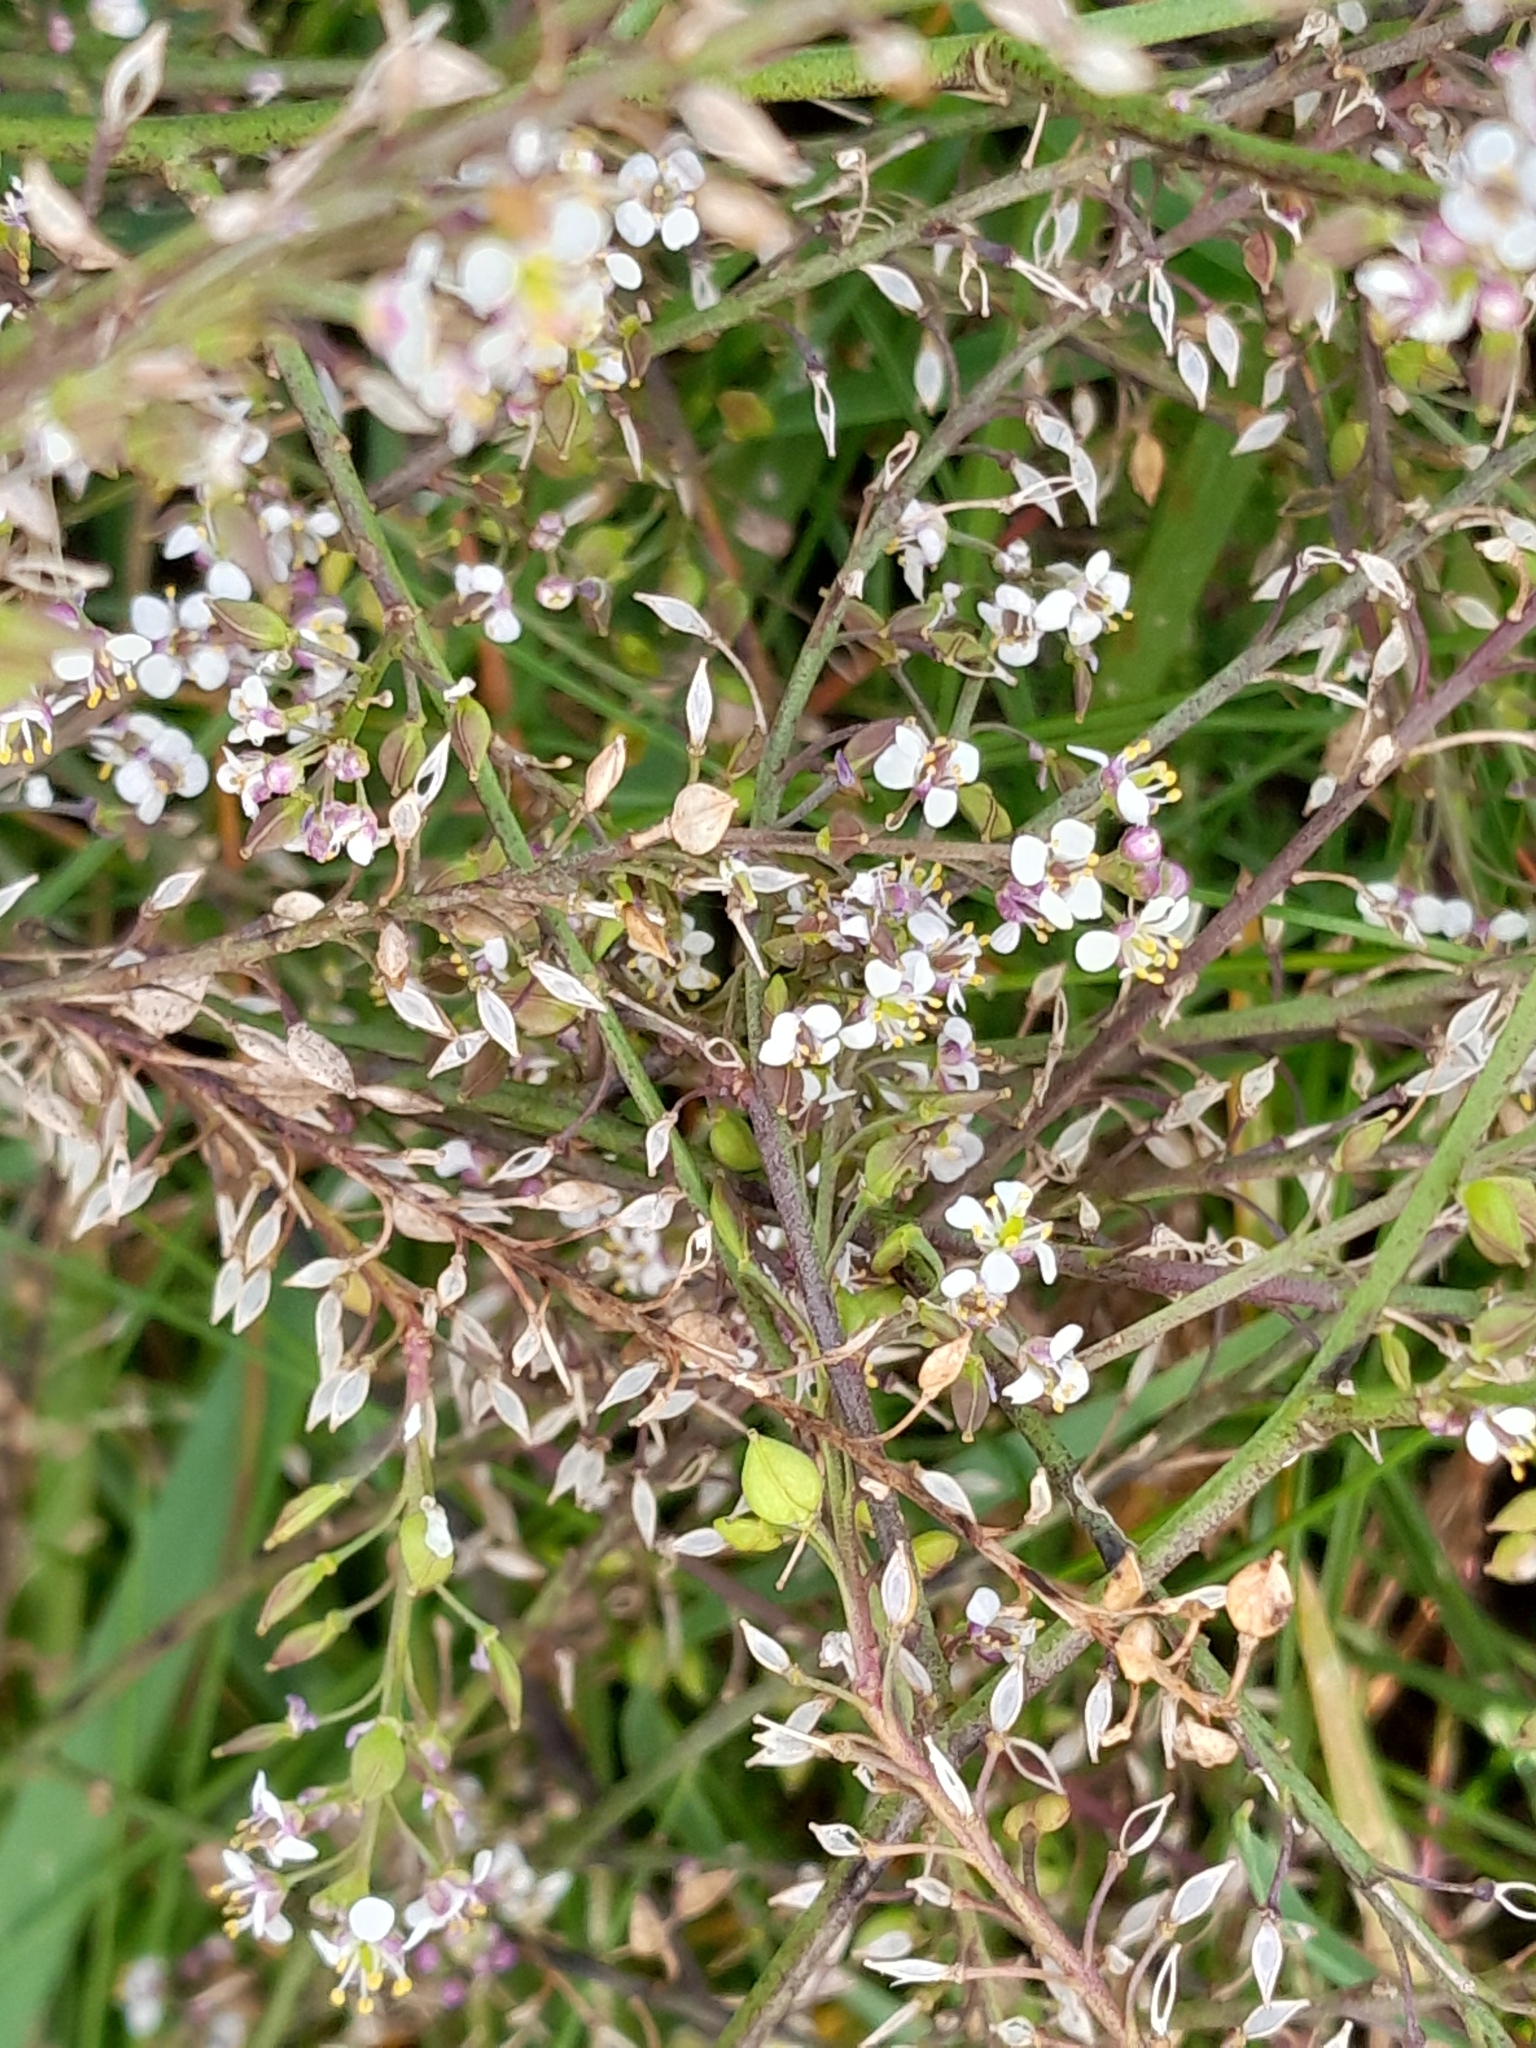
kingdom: Plantae
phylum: Tracheophyta
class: Magnoliopsida
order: Brassicales
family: Brassicaceae
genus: Lepidium
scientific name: Lepidium graminifolium
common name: Tall pepperwort
